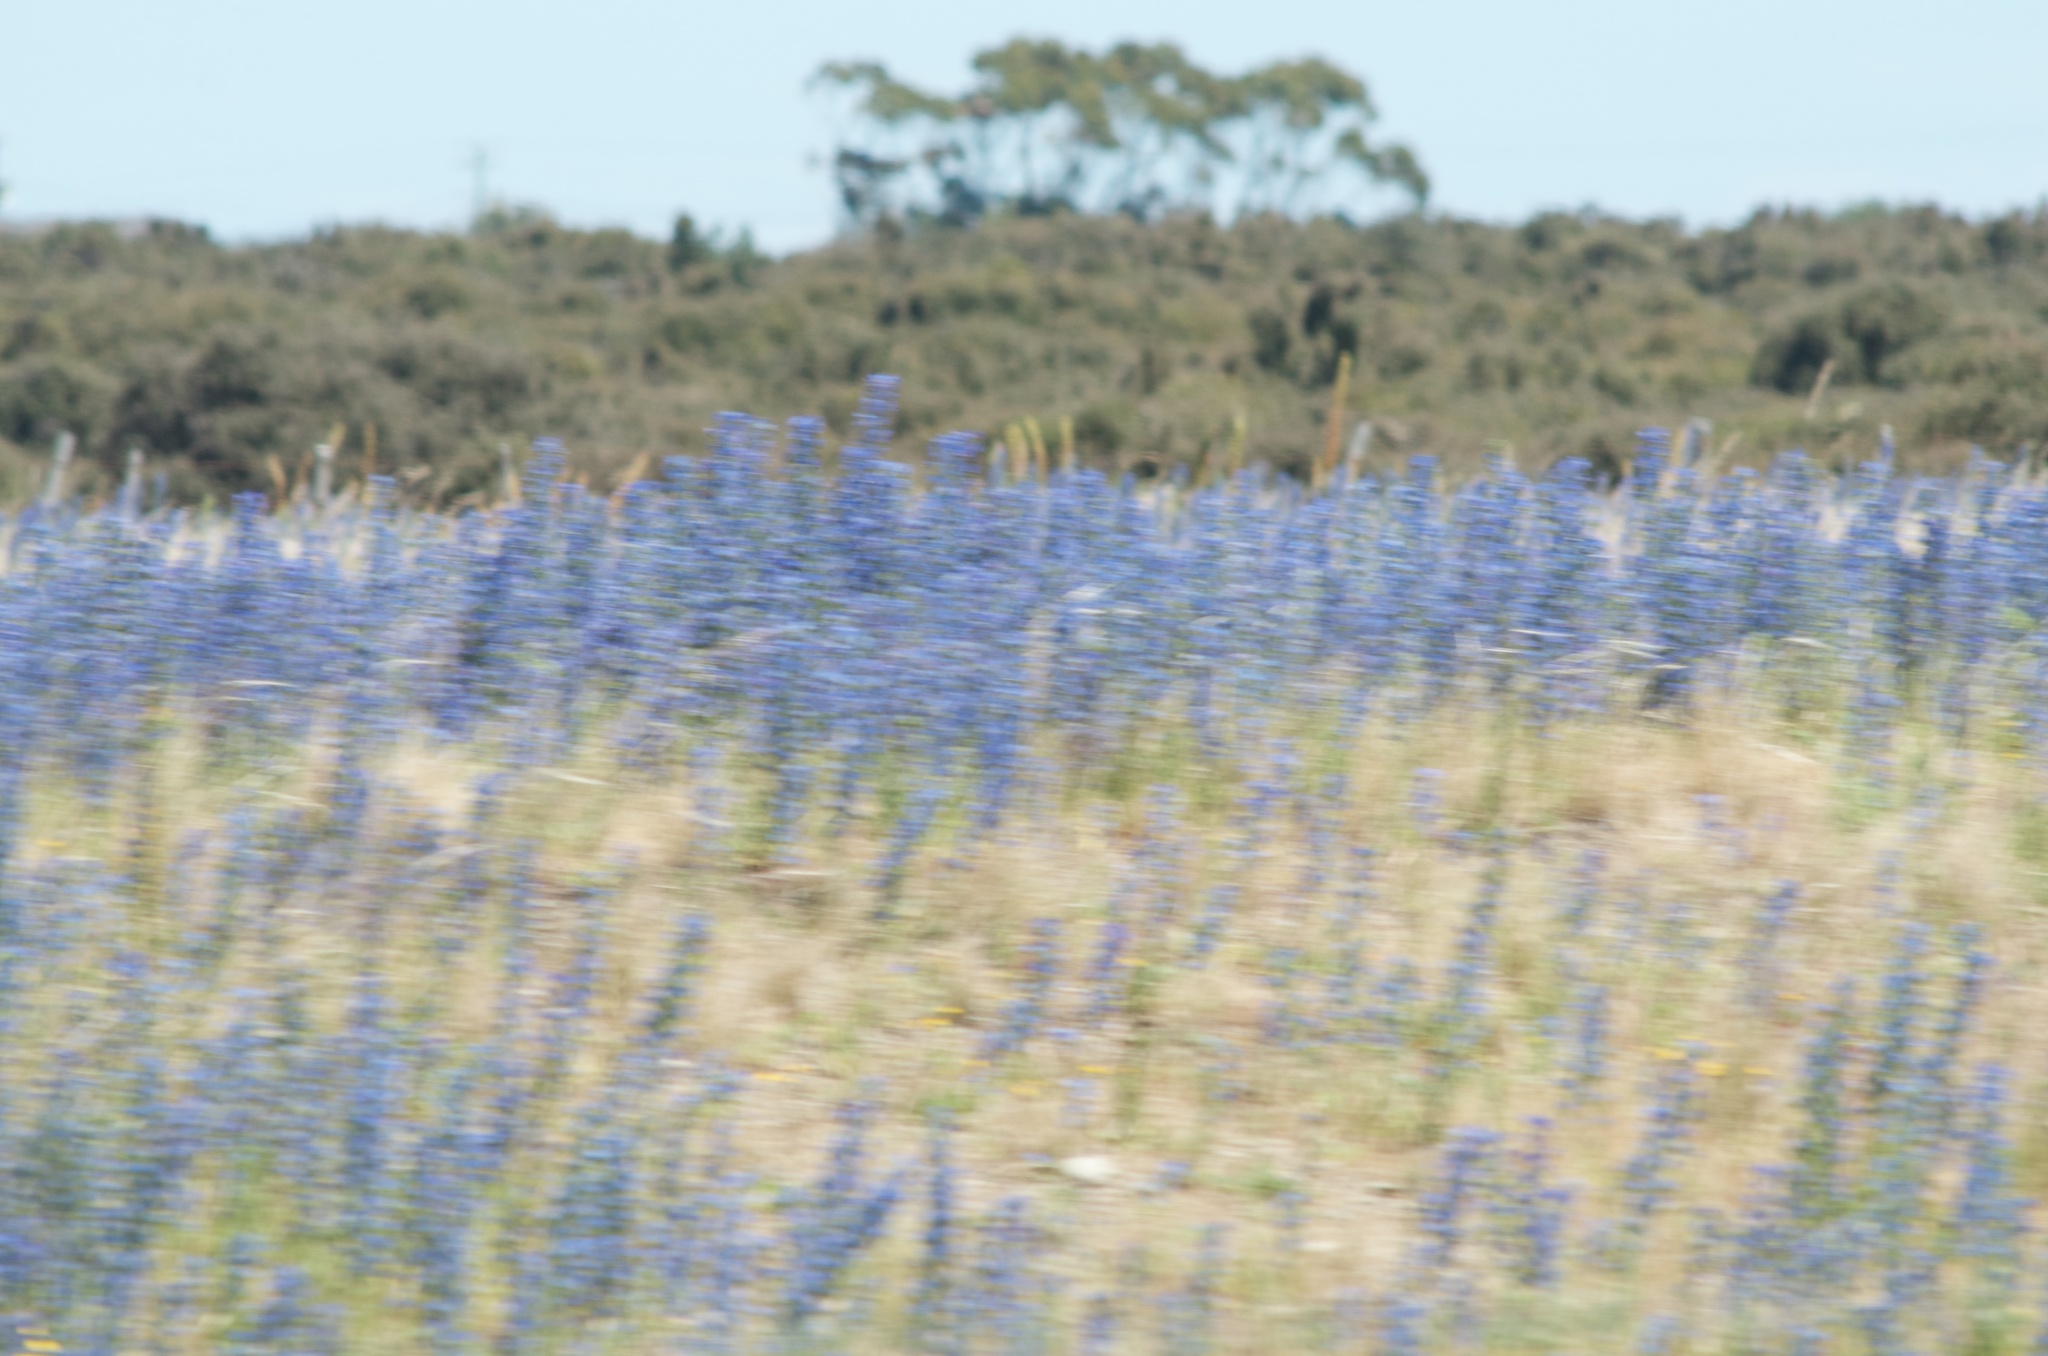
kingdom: Plantae
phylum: Tracheophyta
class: Magnoliopsida
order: Boraginales
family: Boraginaceae
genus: Echium
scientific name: Echium vulgare
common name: Common viper's bugloss
